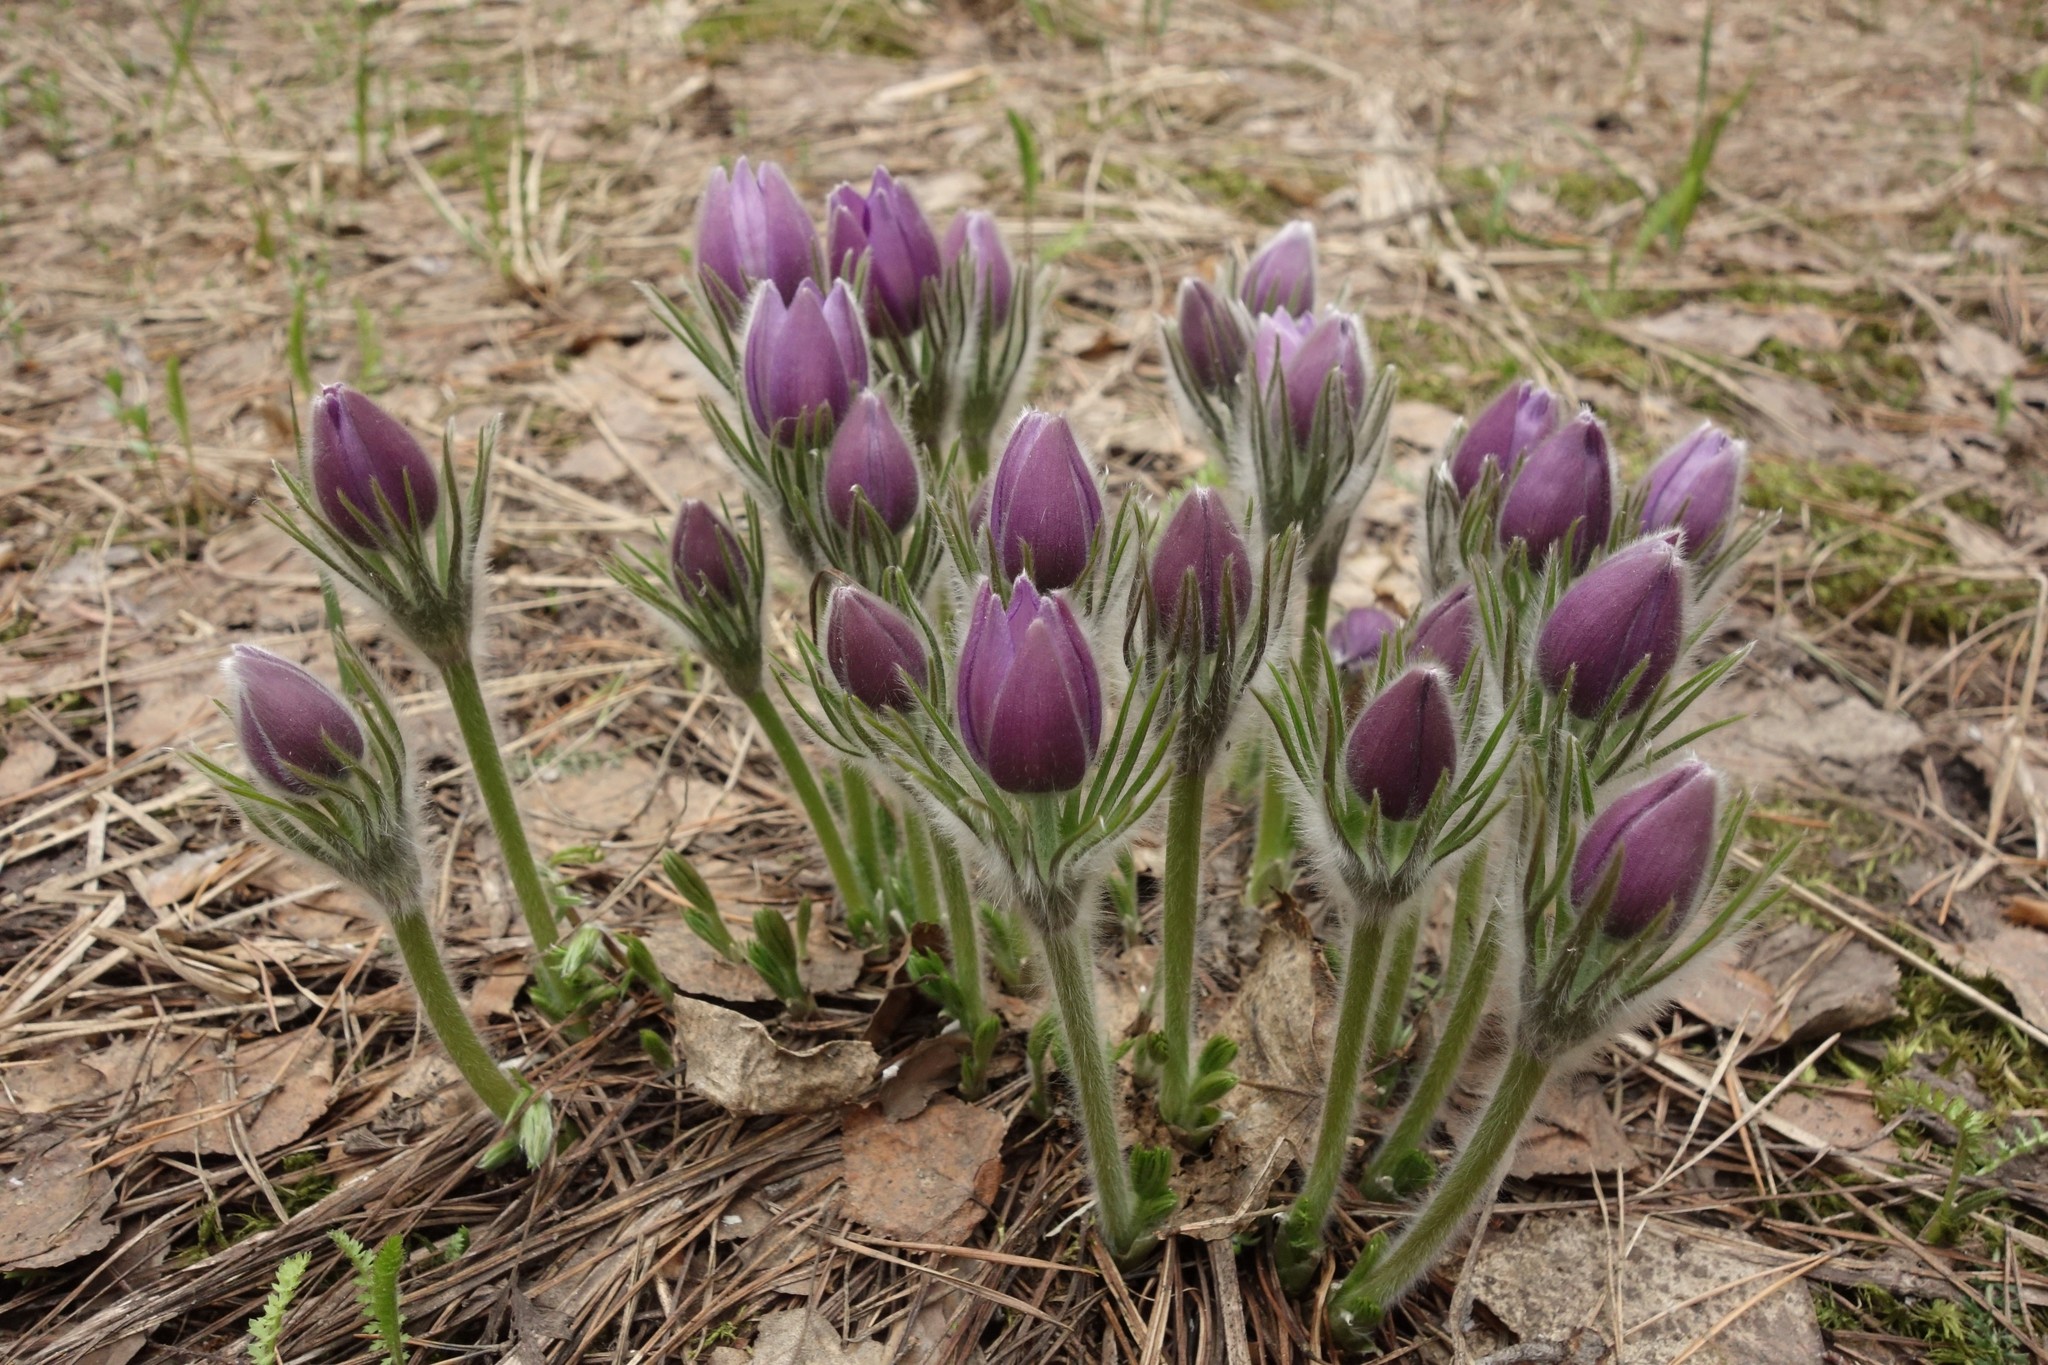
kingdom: Plantae
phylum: Tracheophyta
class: Magnoliopsida
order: Ranunculales
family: Ranunculaceae
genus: Pulsatilla
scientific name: Pulsatilla patens
